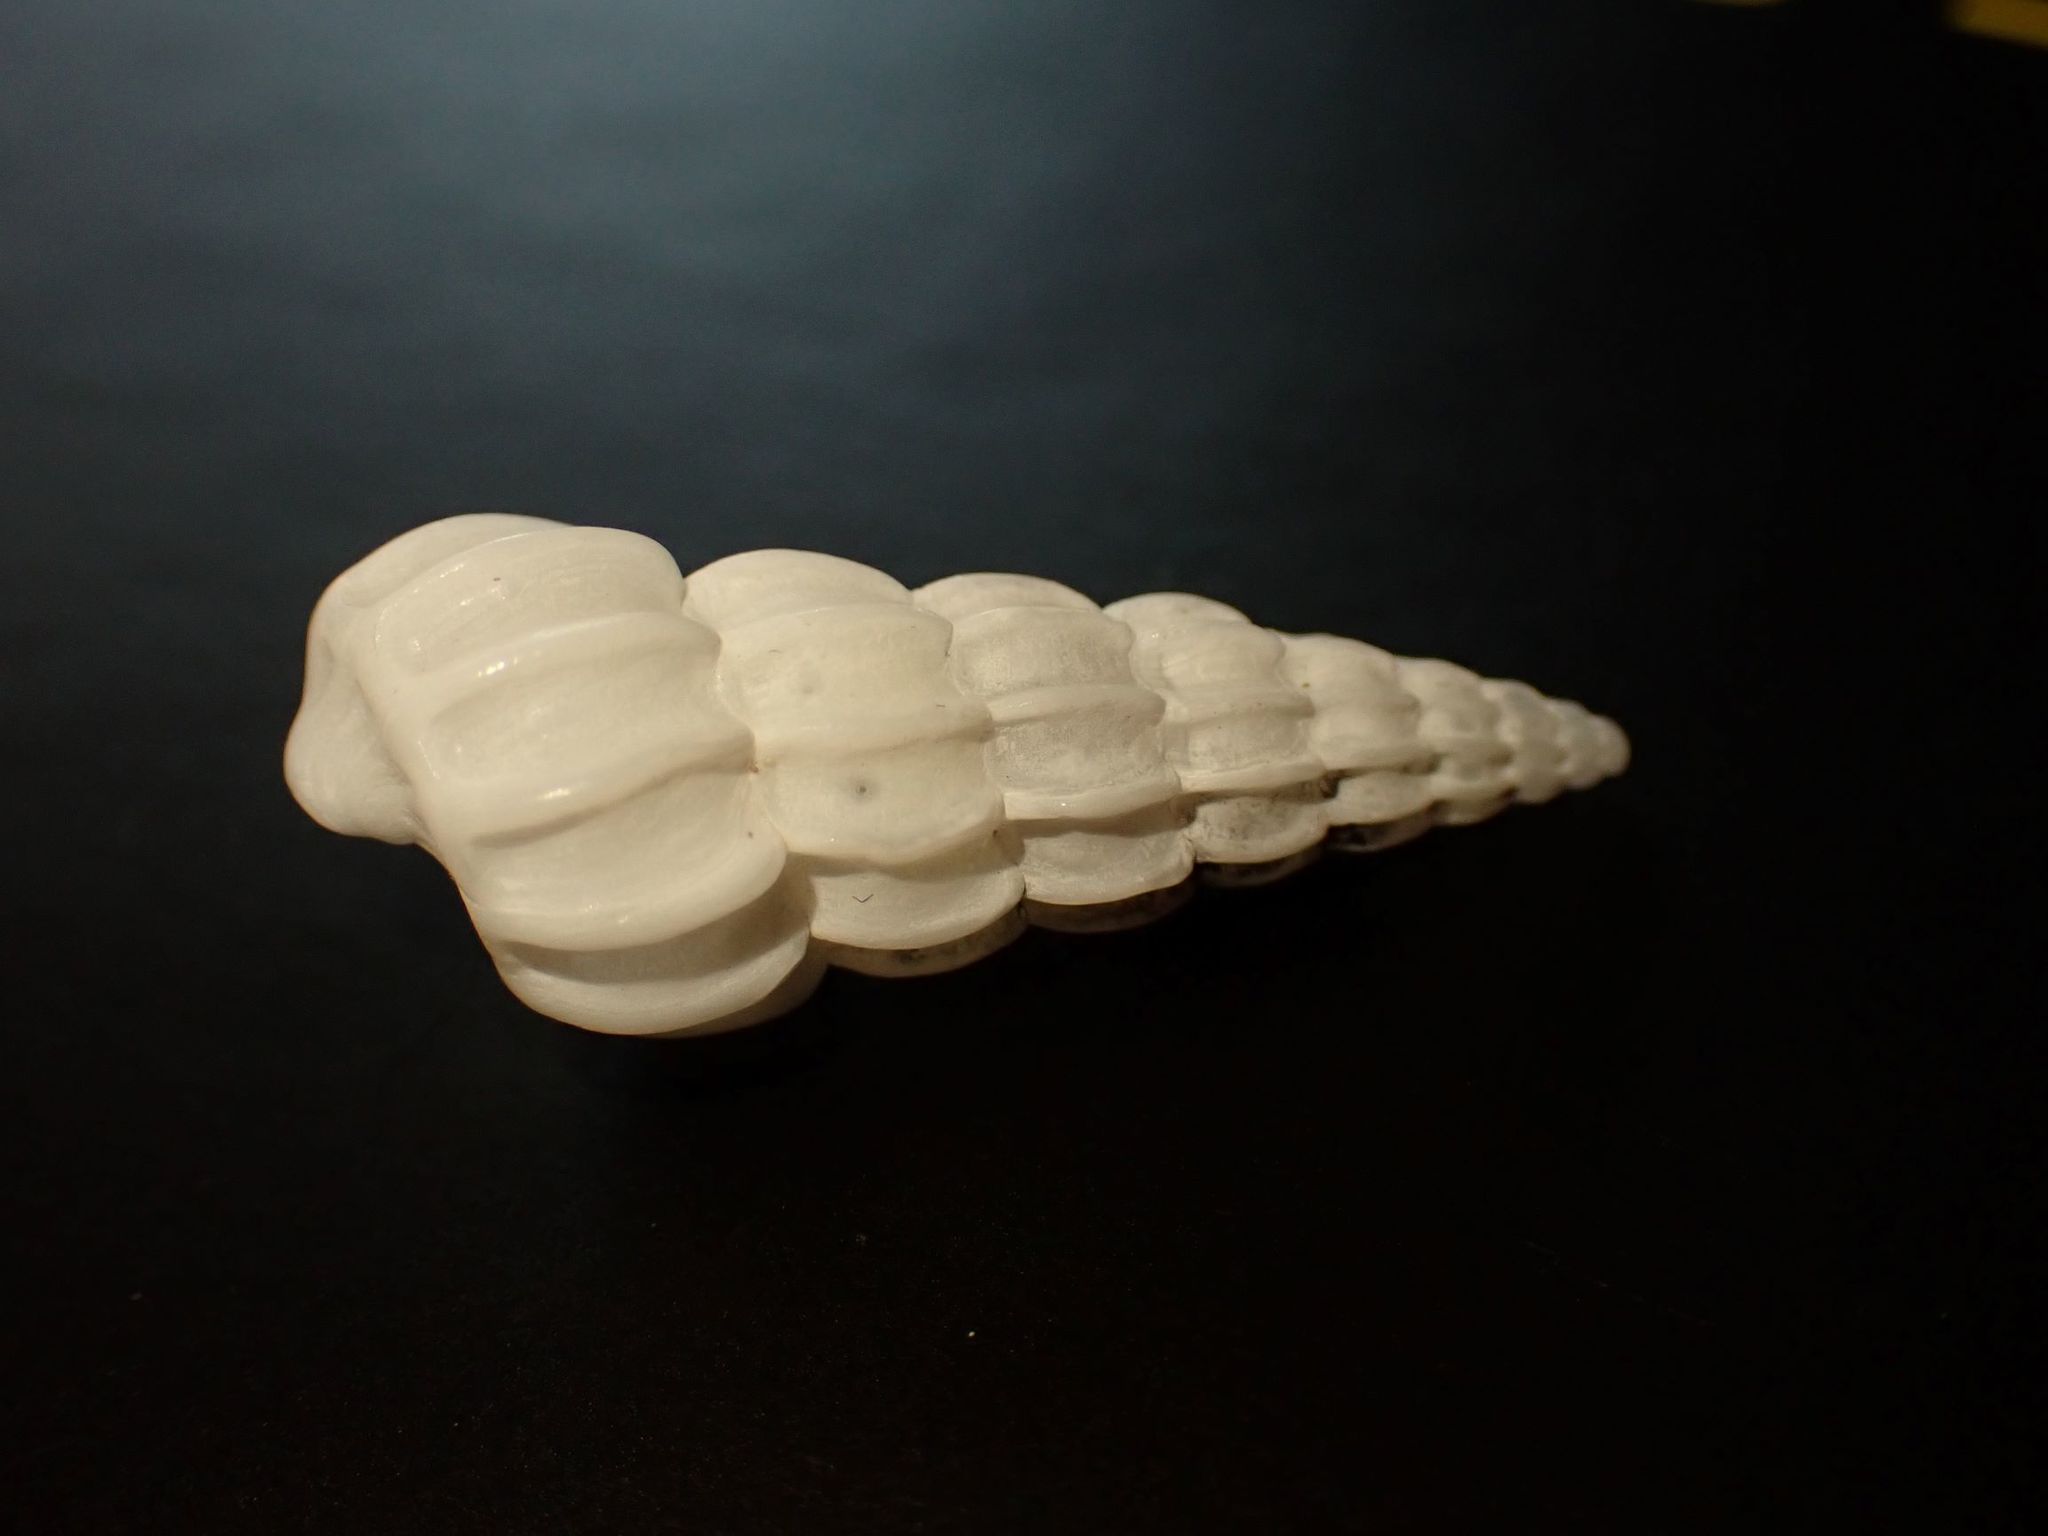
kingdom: Animalia
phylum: Mollusca
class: Gastropoda
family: Epitoniidae
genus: Opalia
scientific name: Opalia australis
